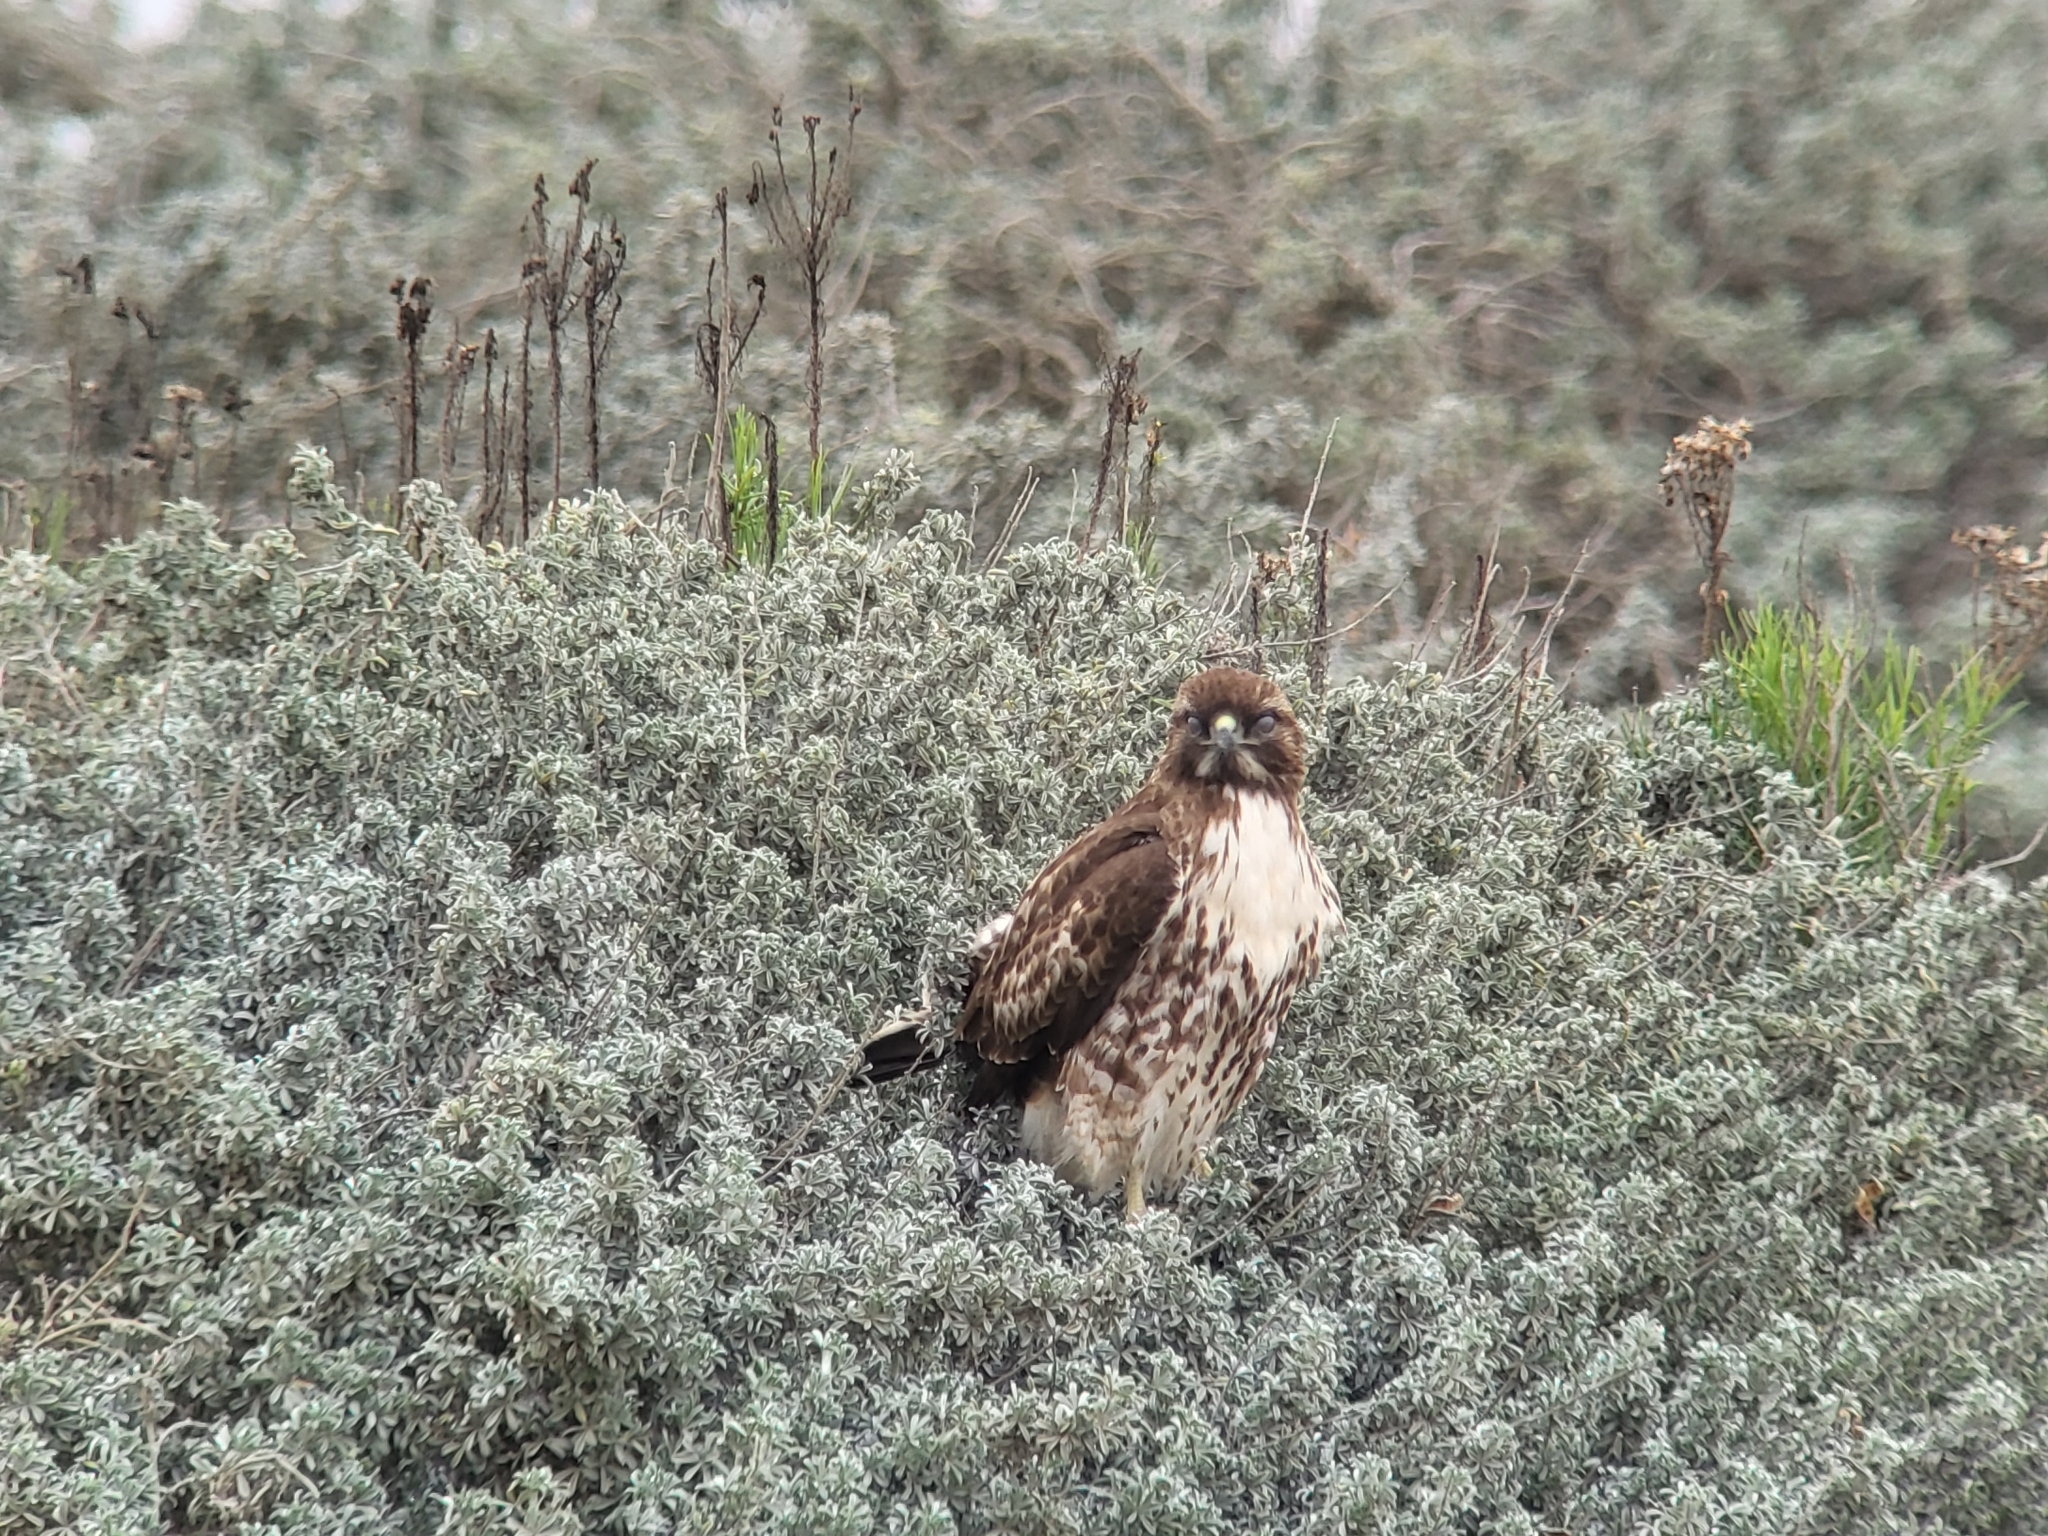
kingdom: Animalia
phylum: Chordata
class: Aves
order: Accipitriformes
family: Accipitridae
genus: Buteo
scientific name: Buteo jamaicensis
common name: Red-tailed hawk
